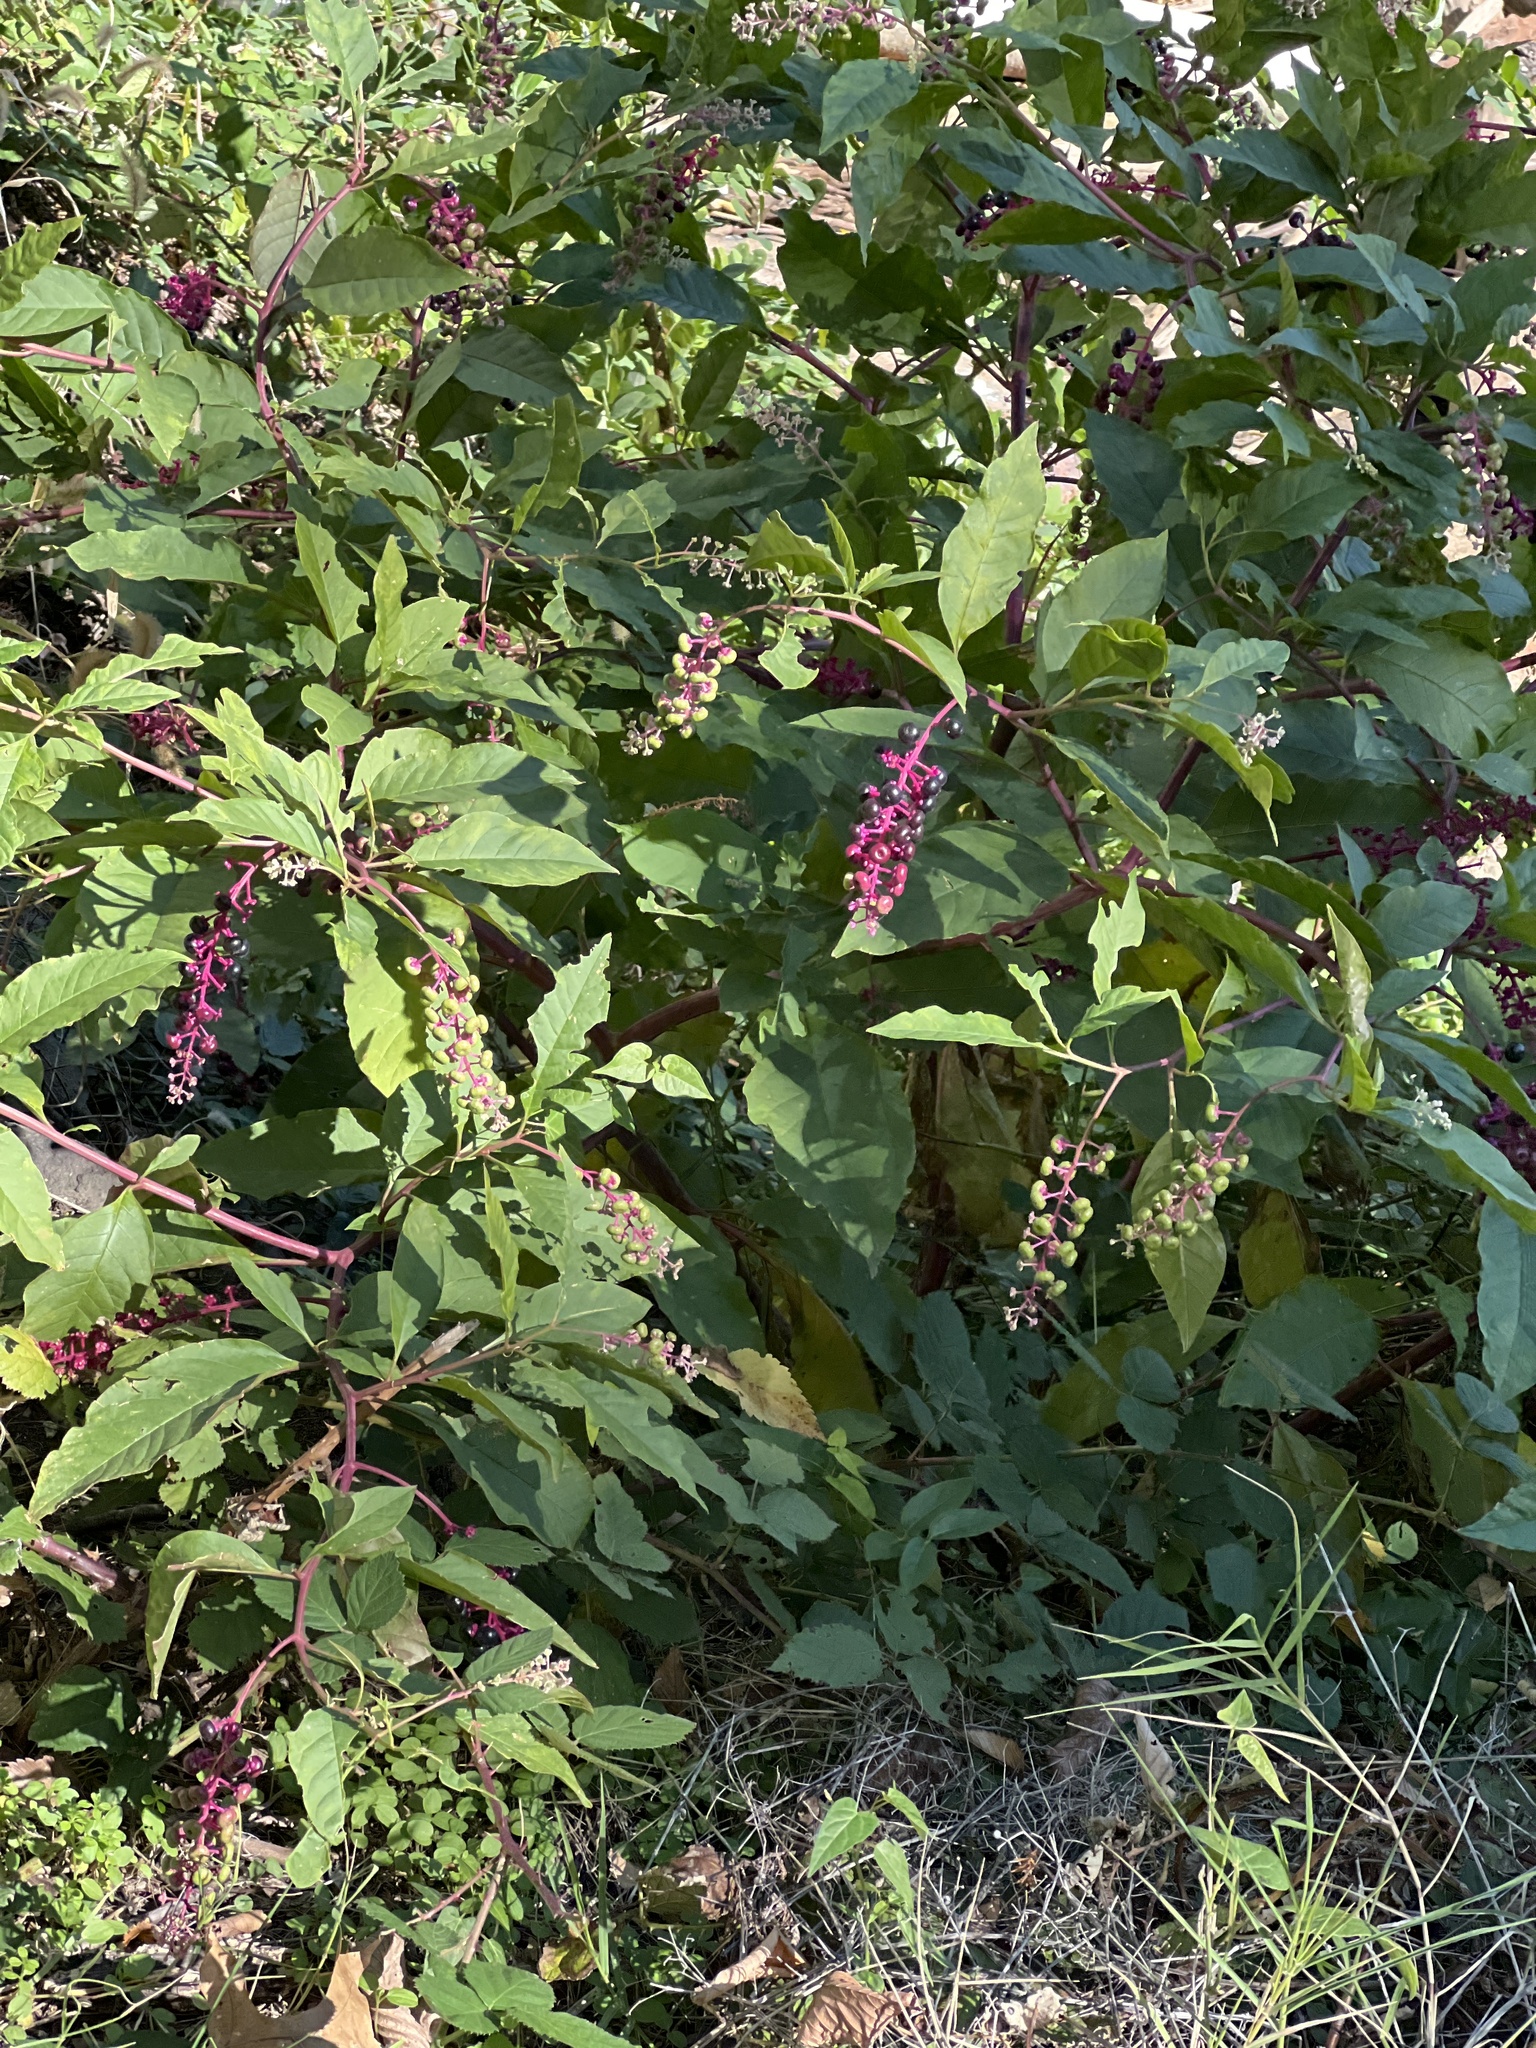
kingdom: Plantae
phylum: Tracheophyta
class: Magnoliopsida
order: Caryophyllales
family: Phytolaccaceae
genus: Phytolacca
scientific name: Phytolacca americana
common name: American pokeweed
